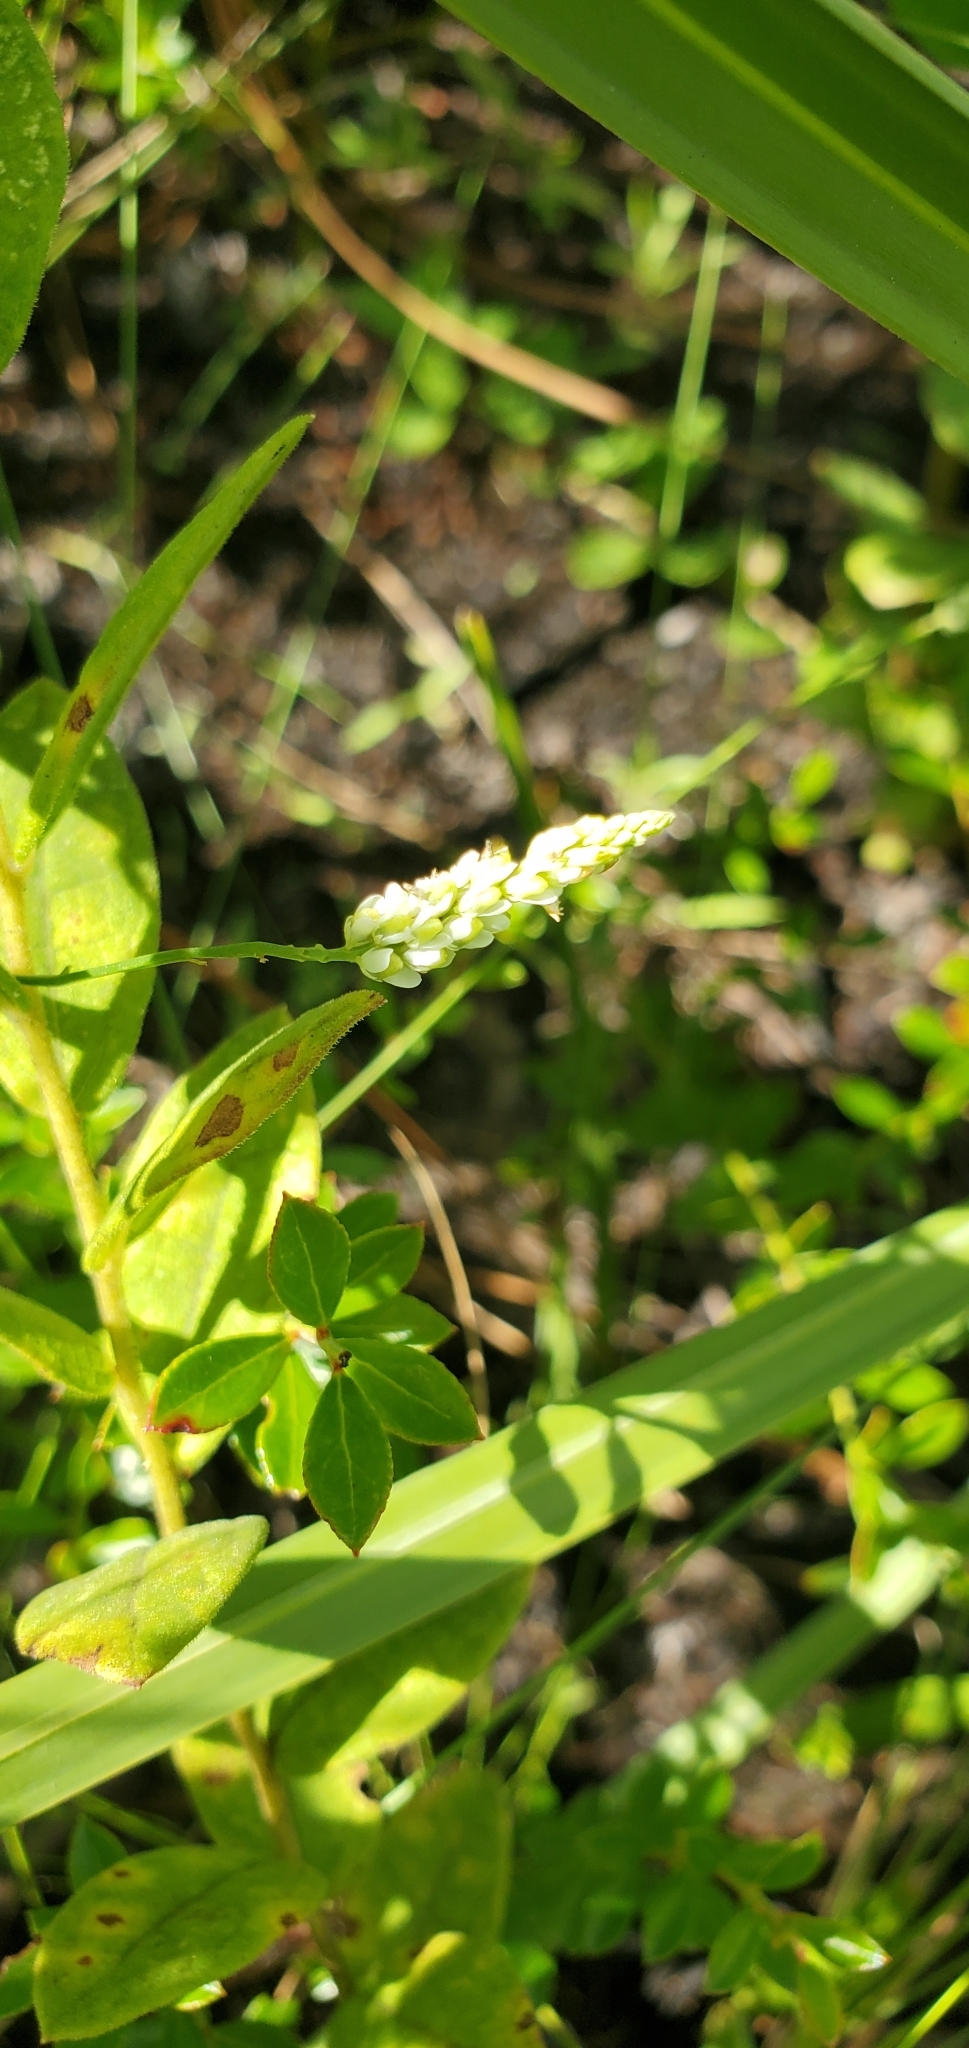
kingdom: Plantae
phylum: Tracheophyta
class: Magnoliopsida
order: Fabales
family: Polygalaceae
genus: Polygala
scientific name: Polygala setacea
